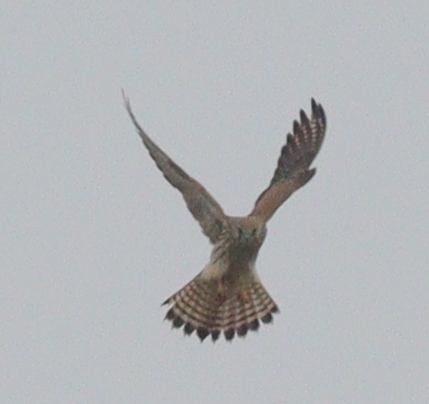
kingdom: Animalia
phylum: Chordata
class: Aves
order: Falconiformes
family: Falconidae
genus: Falco
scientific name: Falco tinnunculus
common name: Common kestrel
